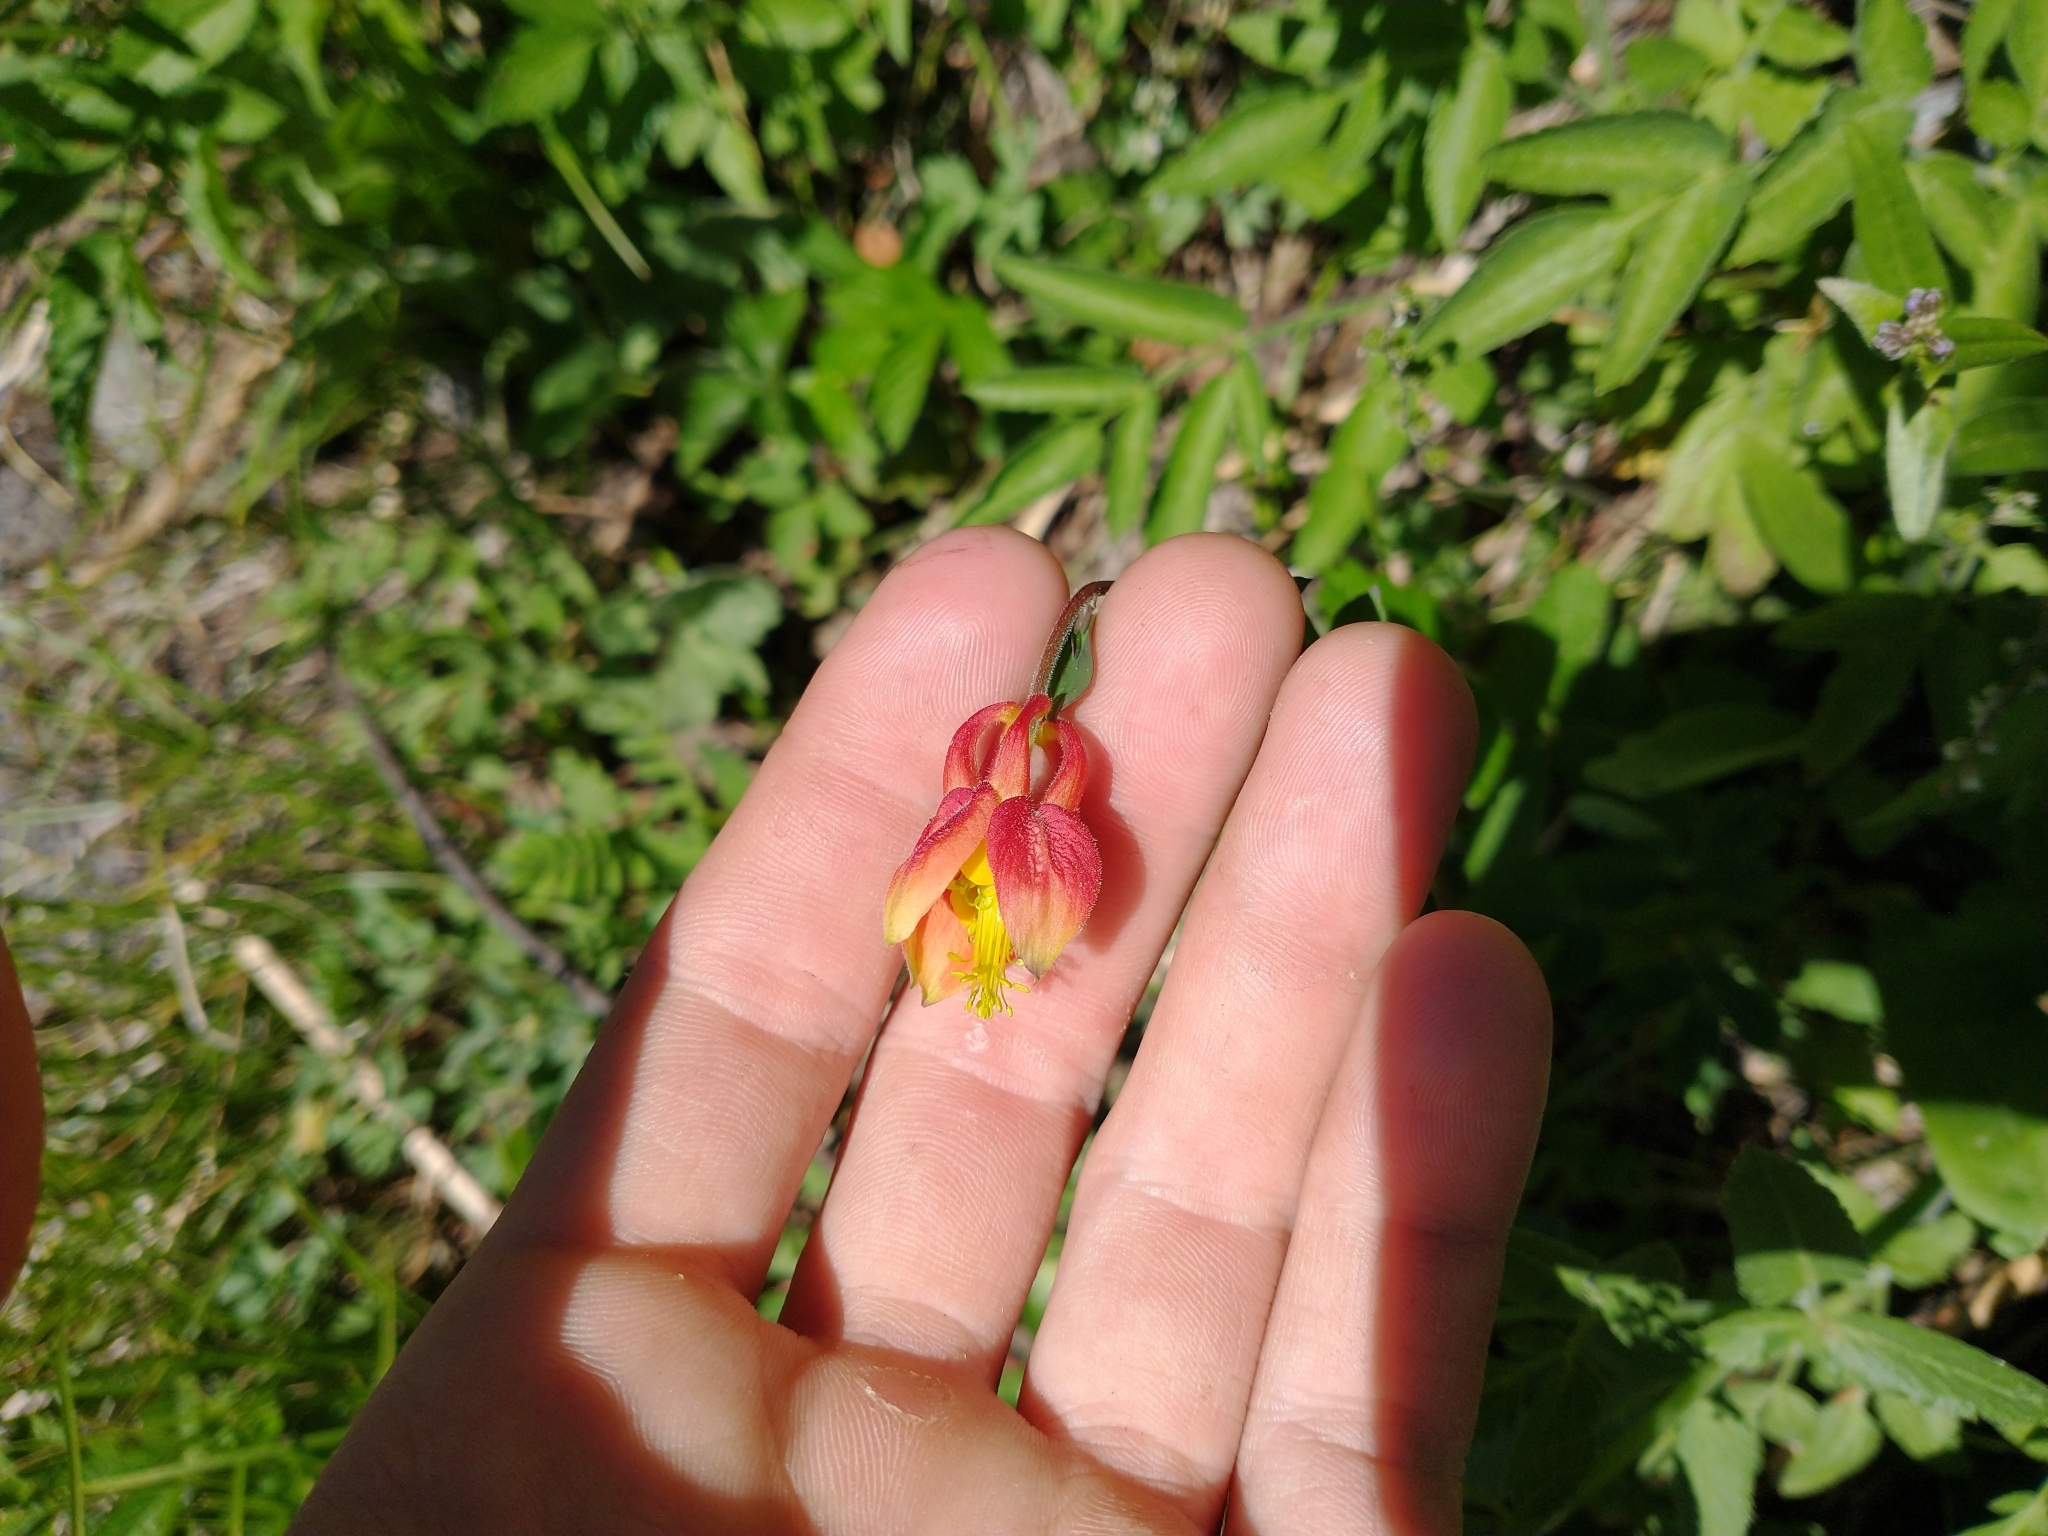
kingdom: Plantae
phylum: Tracheophyta
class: Magnoliopsida
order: Ranunculales
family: Ranunculaceae
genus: Aquilegia
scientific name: Aquilegia formosa
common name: Sitka columbine
